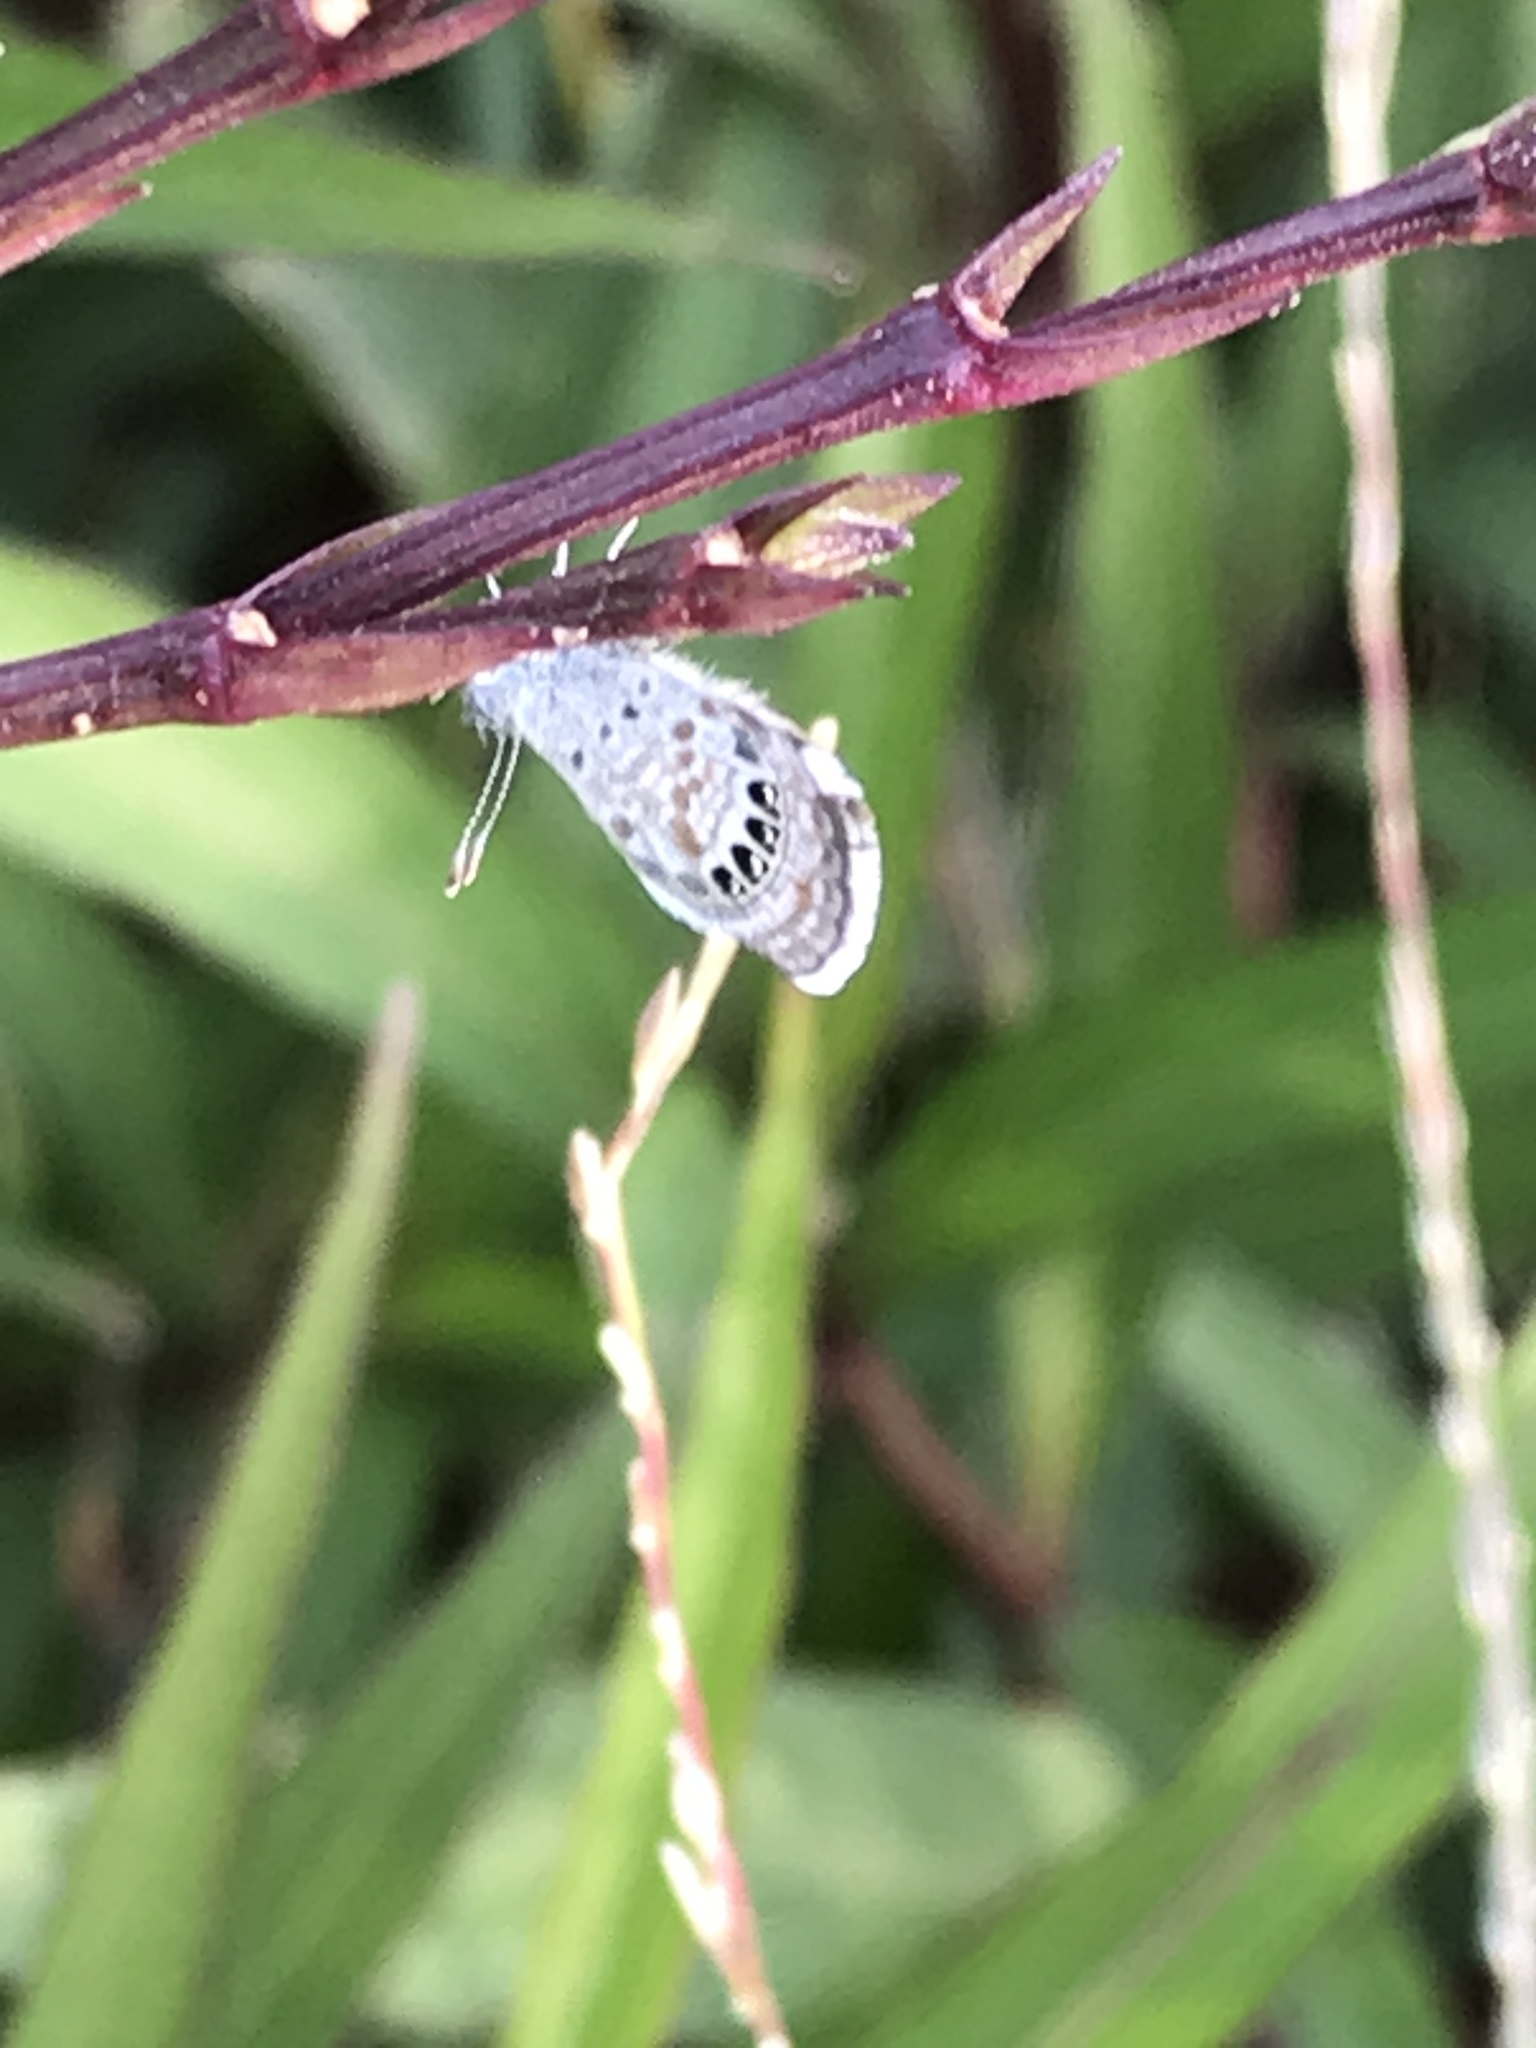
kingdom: Animalia
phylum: Arthropoda
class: Insecta
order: Lepidoptera
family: Lycaenidae
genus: Brephidium
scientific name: Brephidium exilis
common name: Pygmy blue
